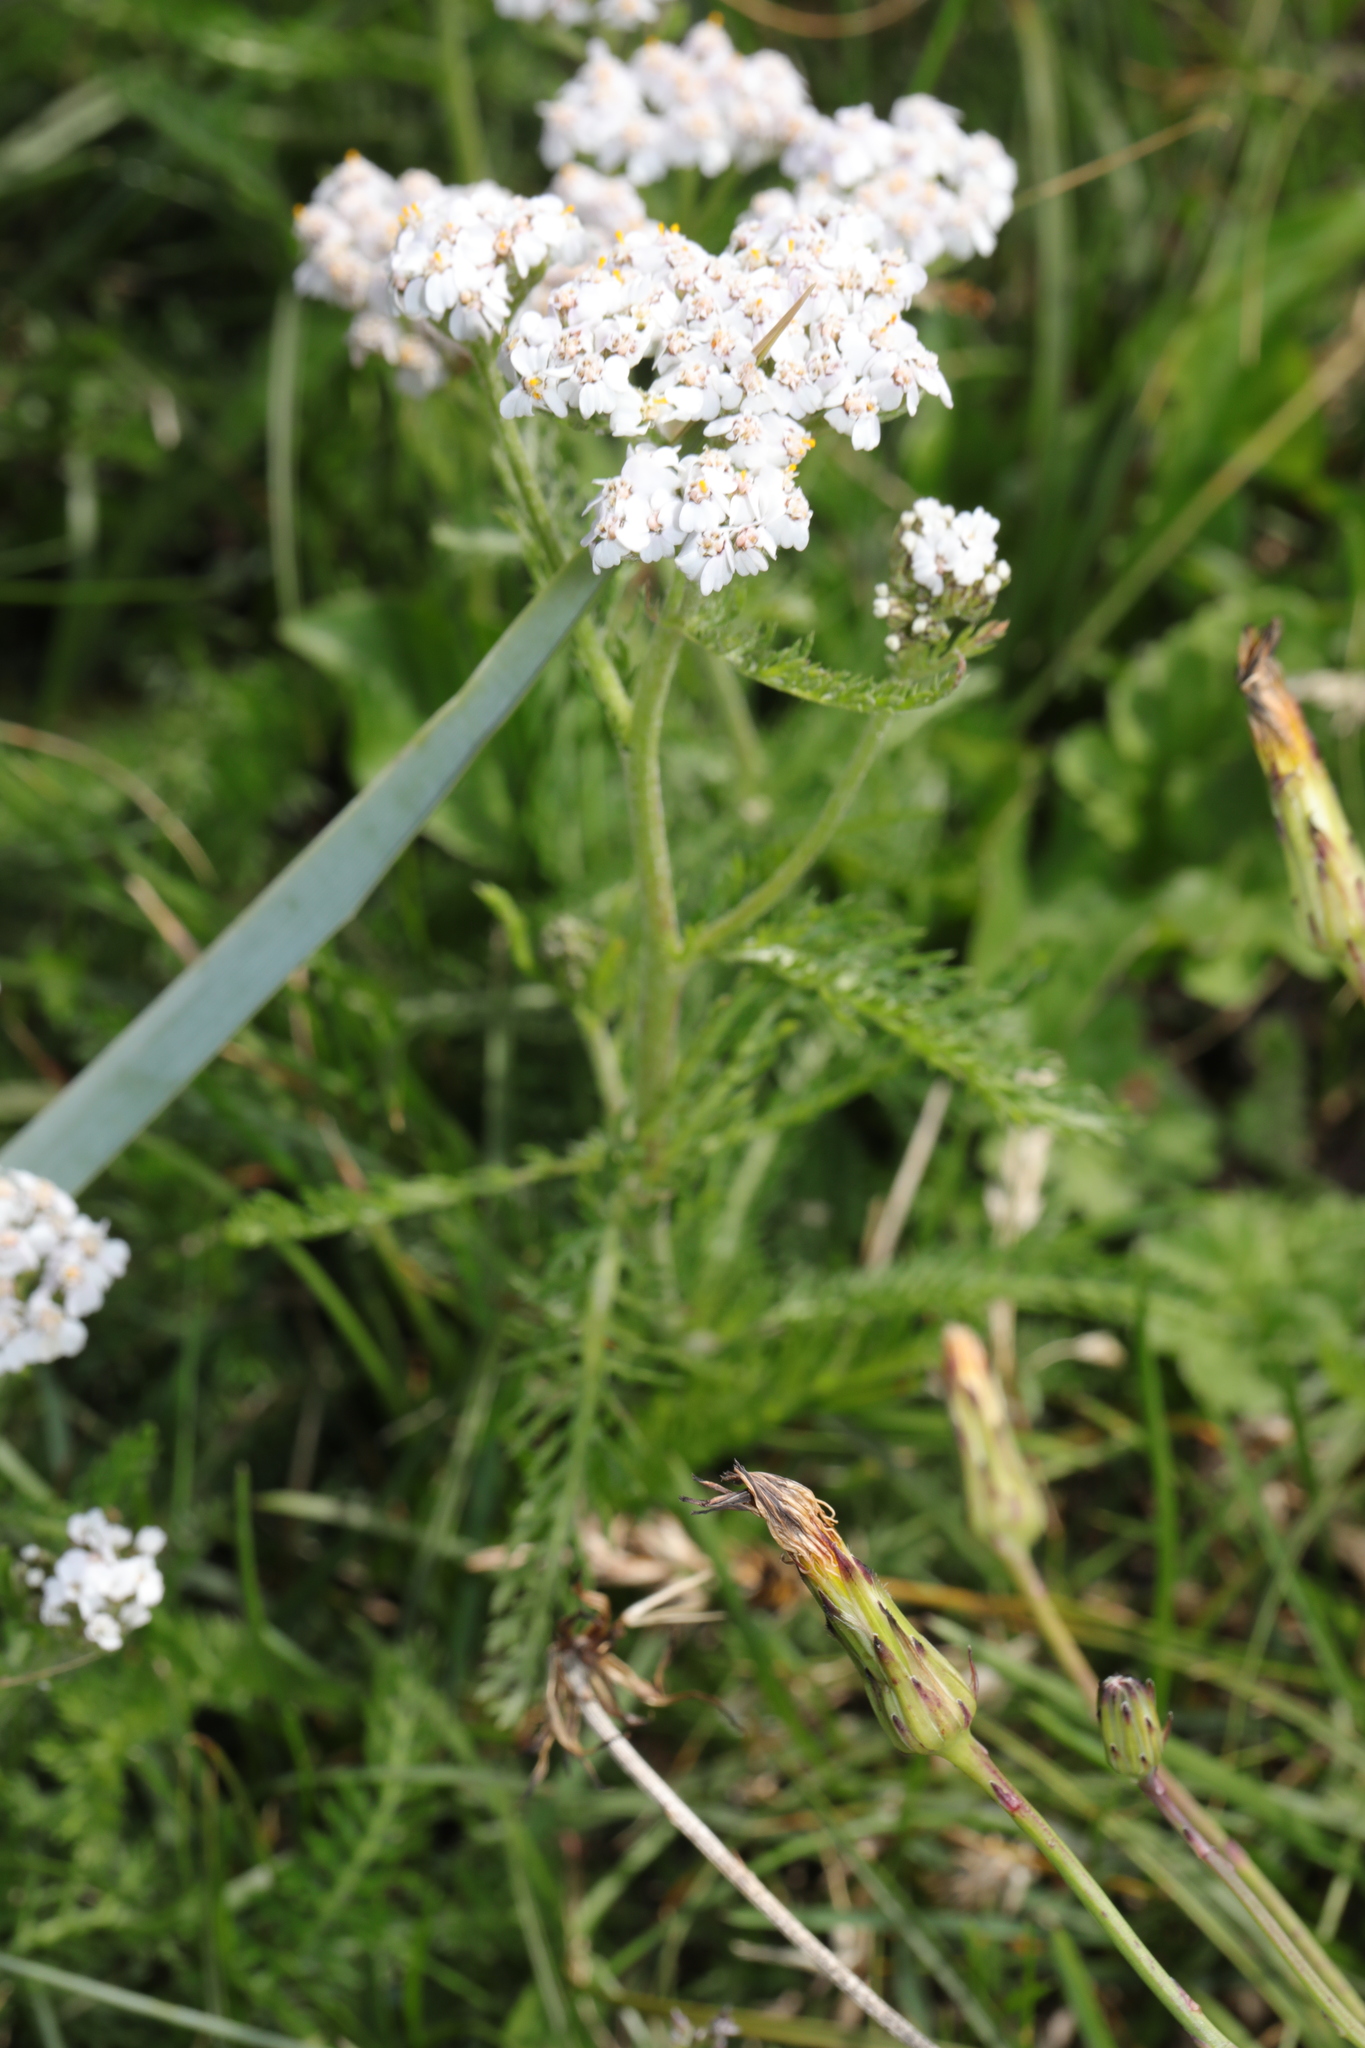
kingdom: Plantae
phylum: Tracheophyta
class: Magnoliopsida
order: Asterales
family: Asteraceae
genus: Achillea
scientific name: Achillea millefolium
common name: Yarrow
